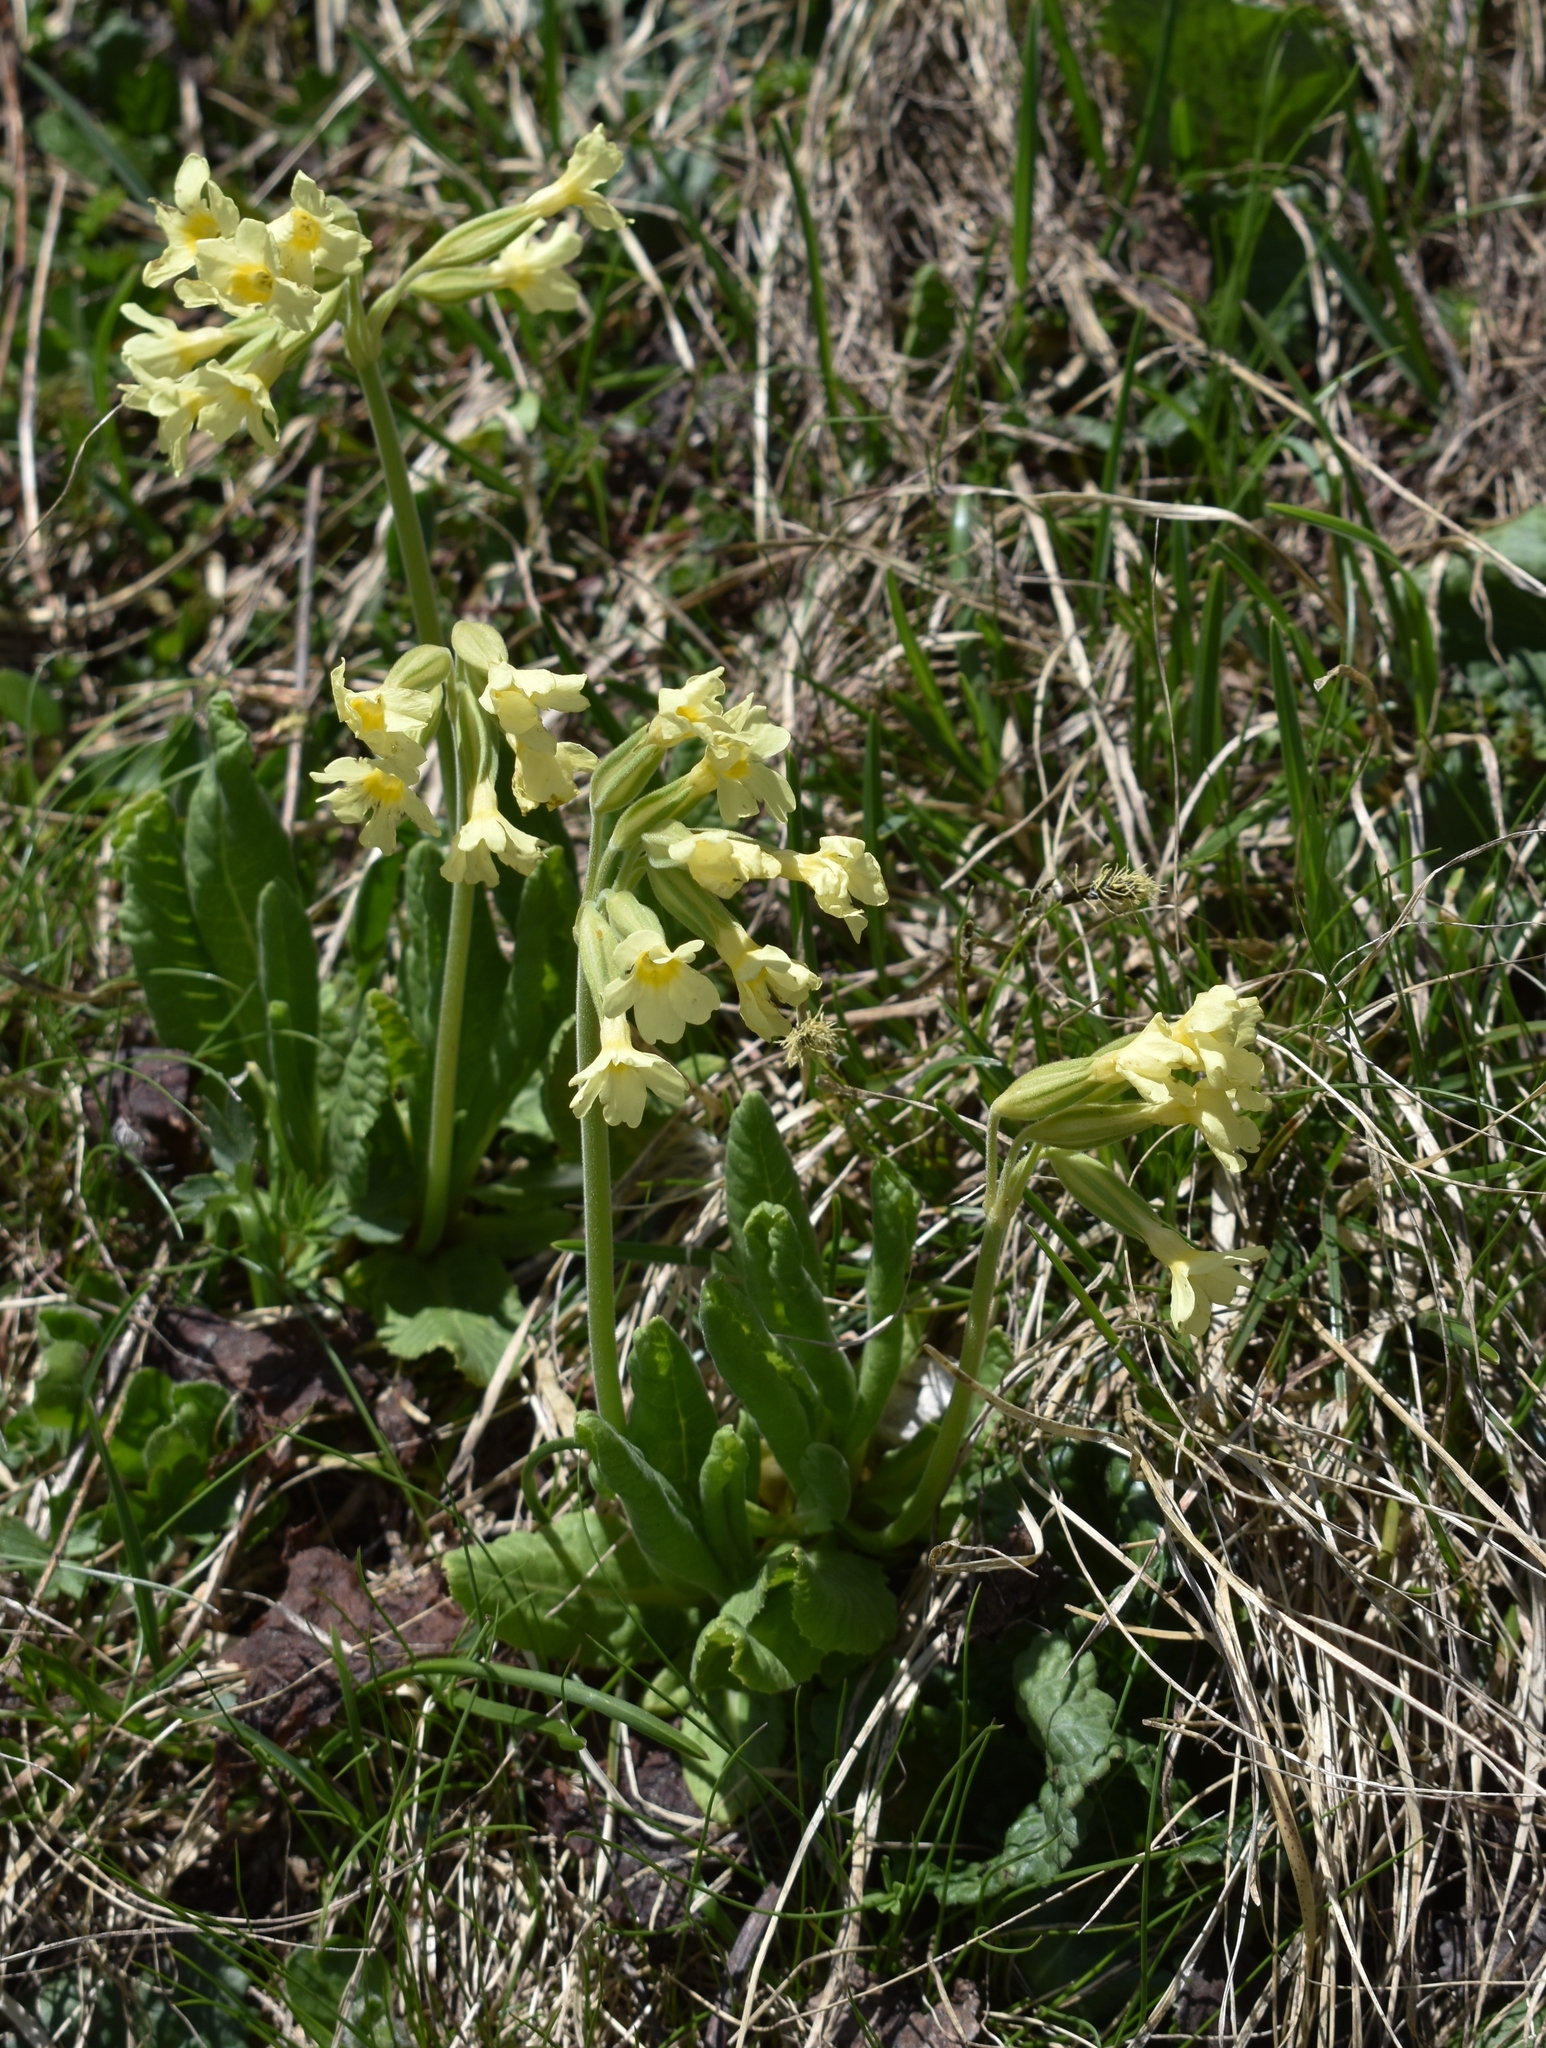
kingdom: Plantae
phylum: Tracheophyta
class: Magnoliopsida
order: Ericales
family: Primulaceae
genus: Primula
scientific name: Primula elatior
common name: Oxlip
